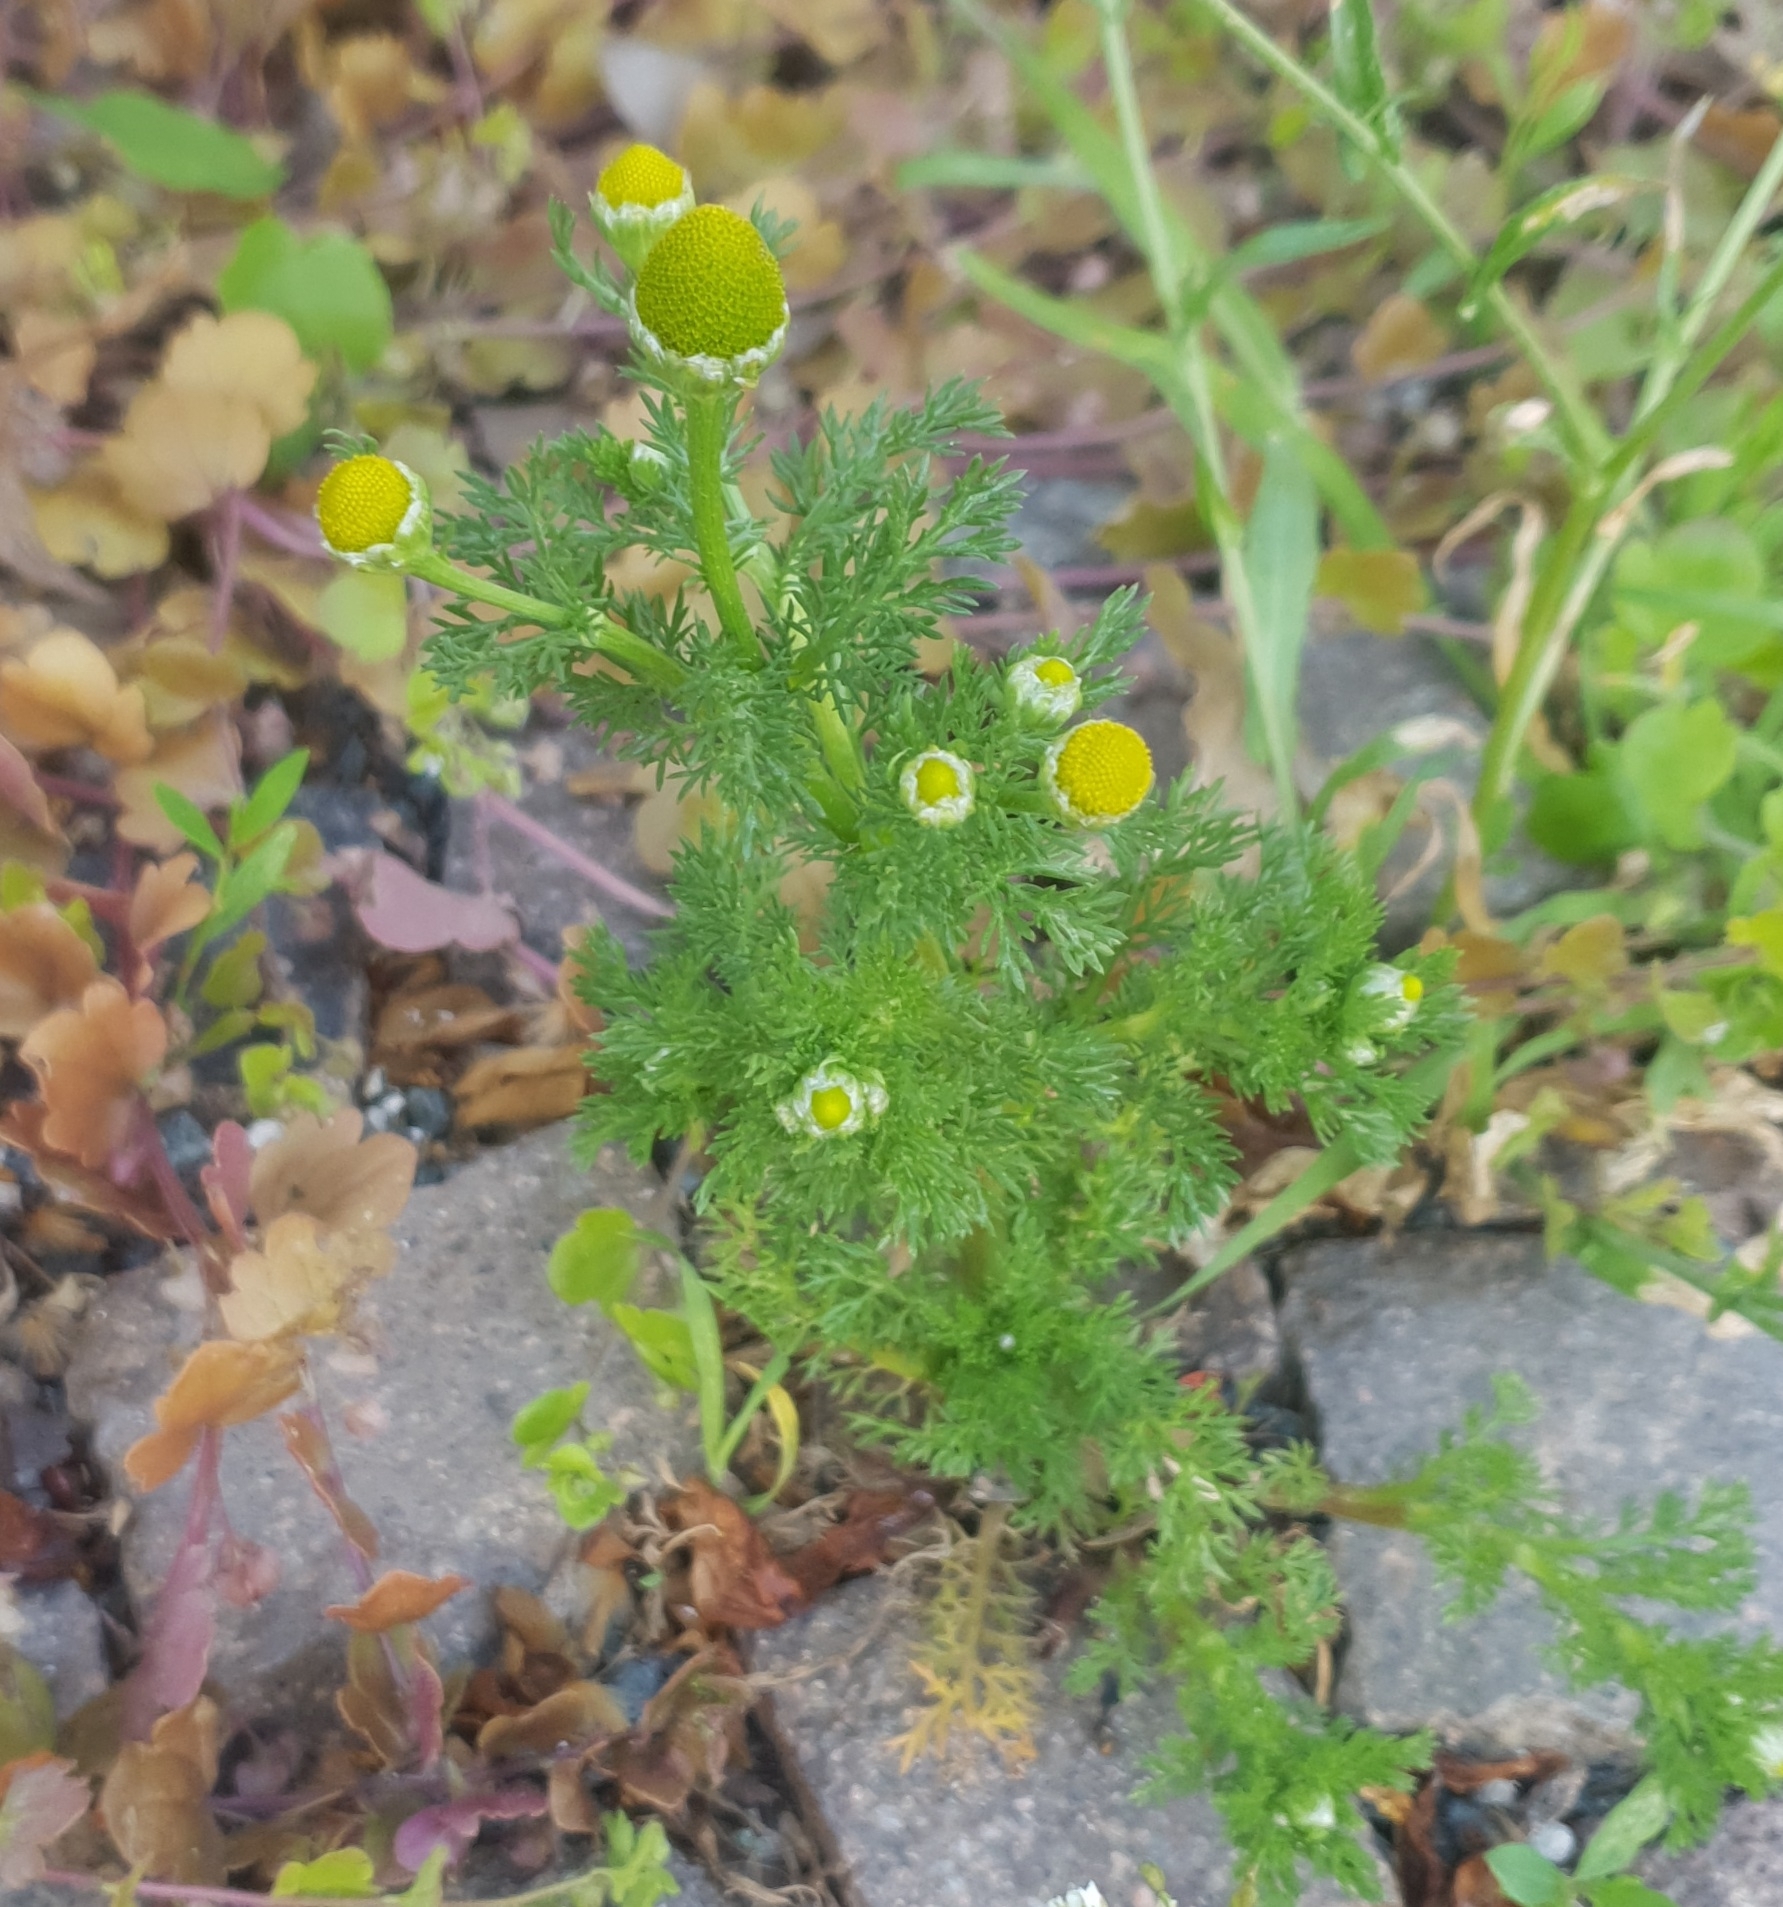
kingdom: Plantae
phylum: Tracheophyta
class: Magnoliopsida
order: Asterales
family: Asteraceae
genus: Matricaria
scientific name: Matricaria discoidea
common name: Disc mayweed
